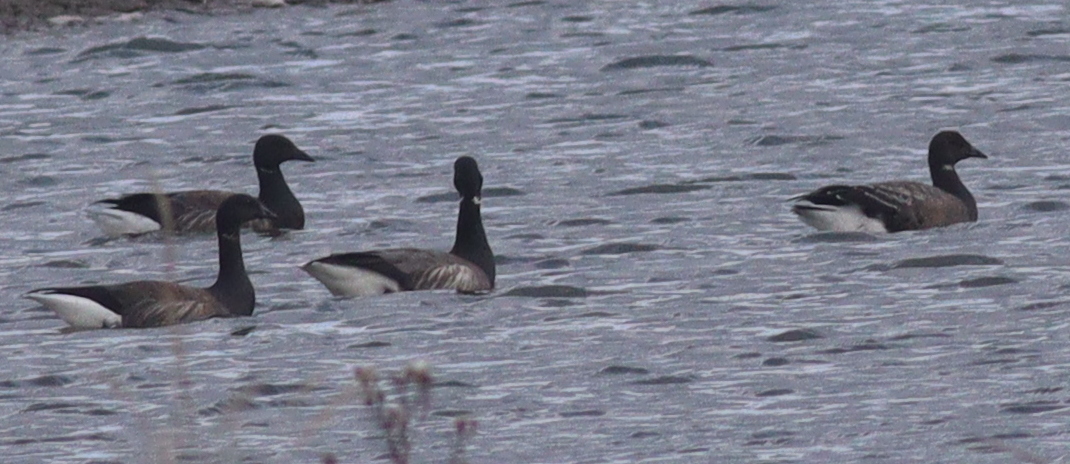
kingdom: Animalia
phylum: Chordata
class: Aves
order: Anseriformes
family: Anatidae
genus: Branta
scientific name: Branta bernicla
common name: Brant goose
